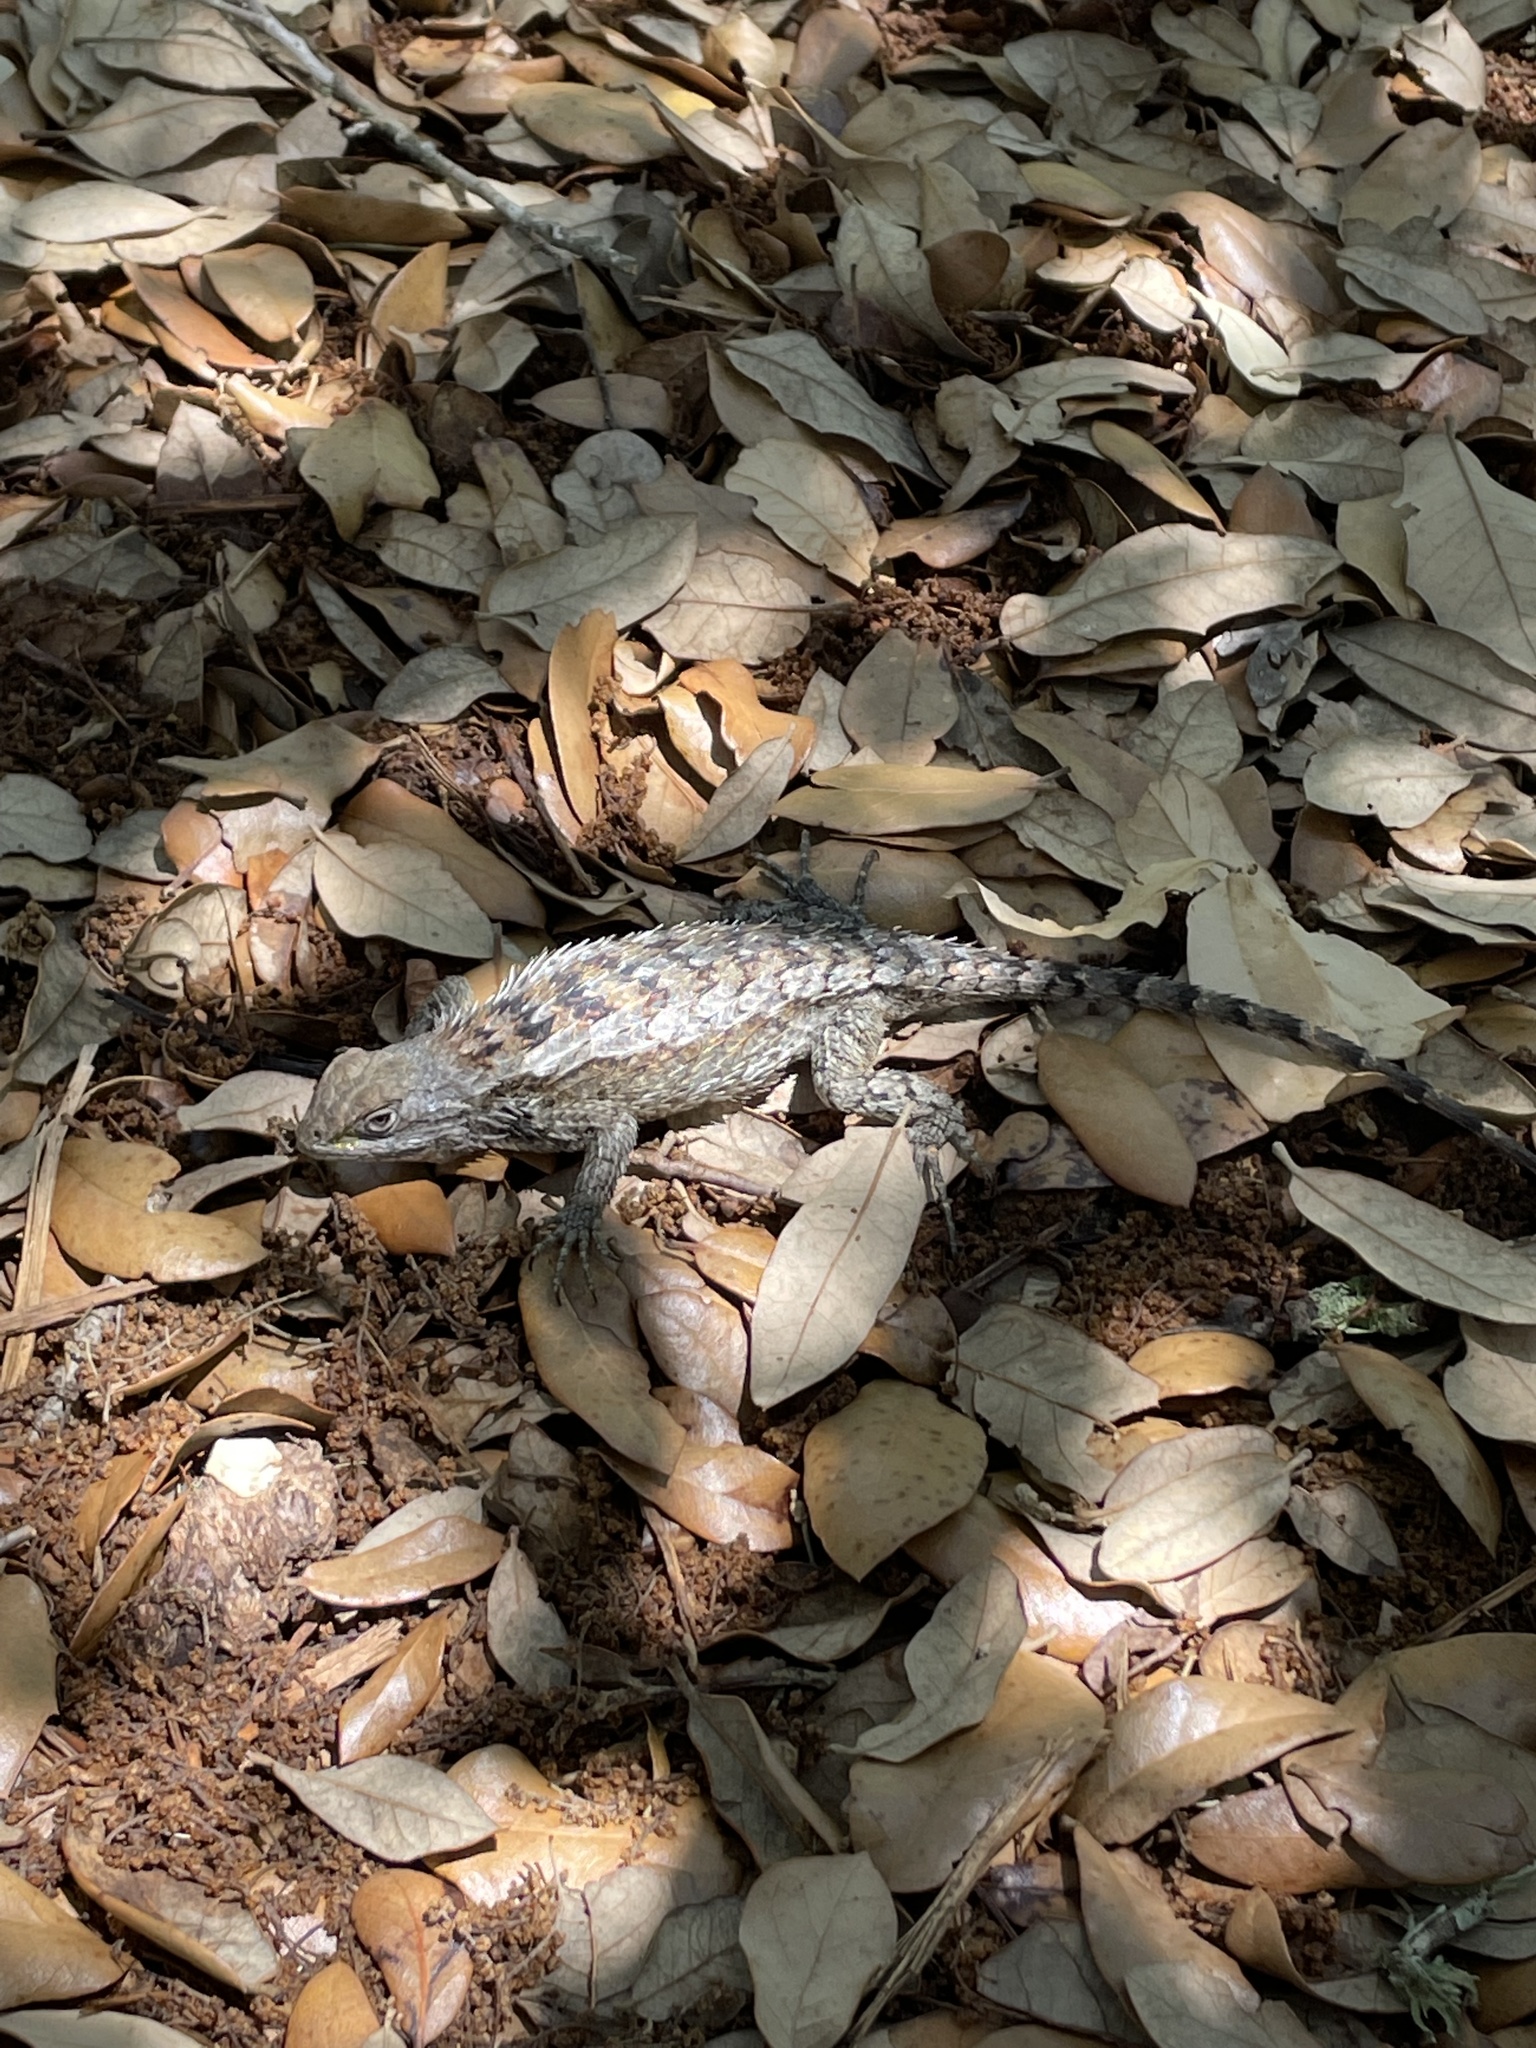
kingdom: Animalia
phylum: Chordata
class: Squamata
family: Phrynosomatidae
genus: Sceloporus
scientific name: Sceloporus olivaceus
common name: Texas spiny lizard
